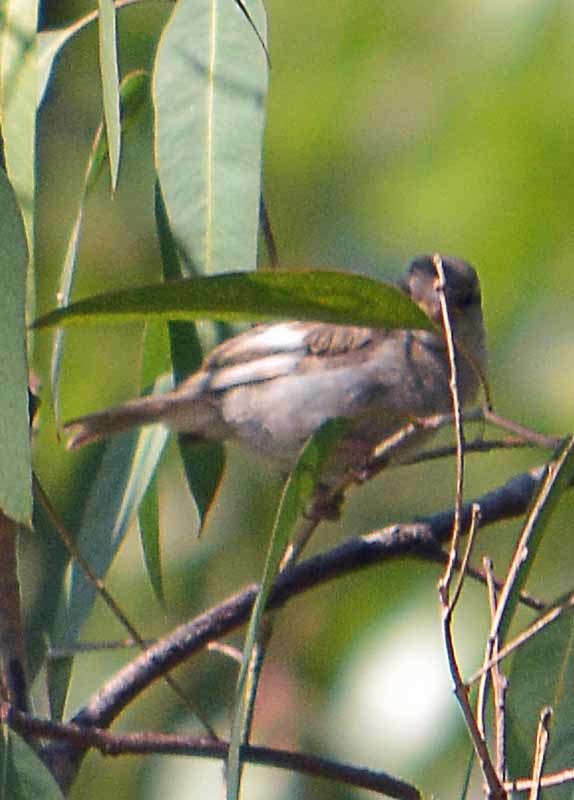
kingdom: Animalia
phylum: Chordata
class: Aves
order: Passeriformes
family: Passeridae
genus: Passer
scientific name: Passer domesticus
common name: House sparrow
